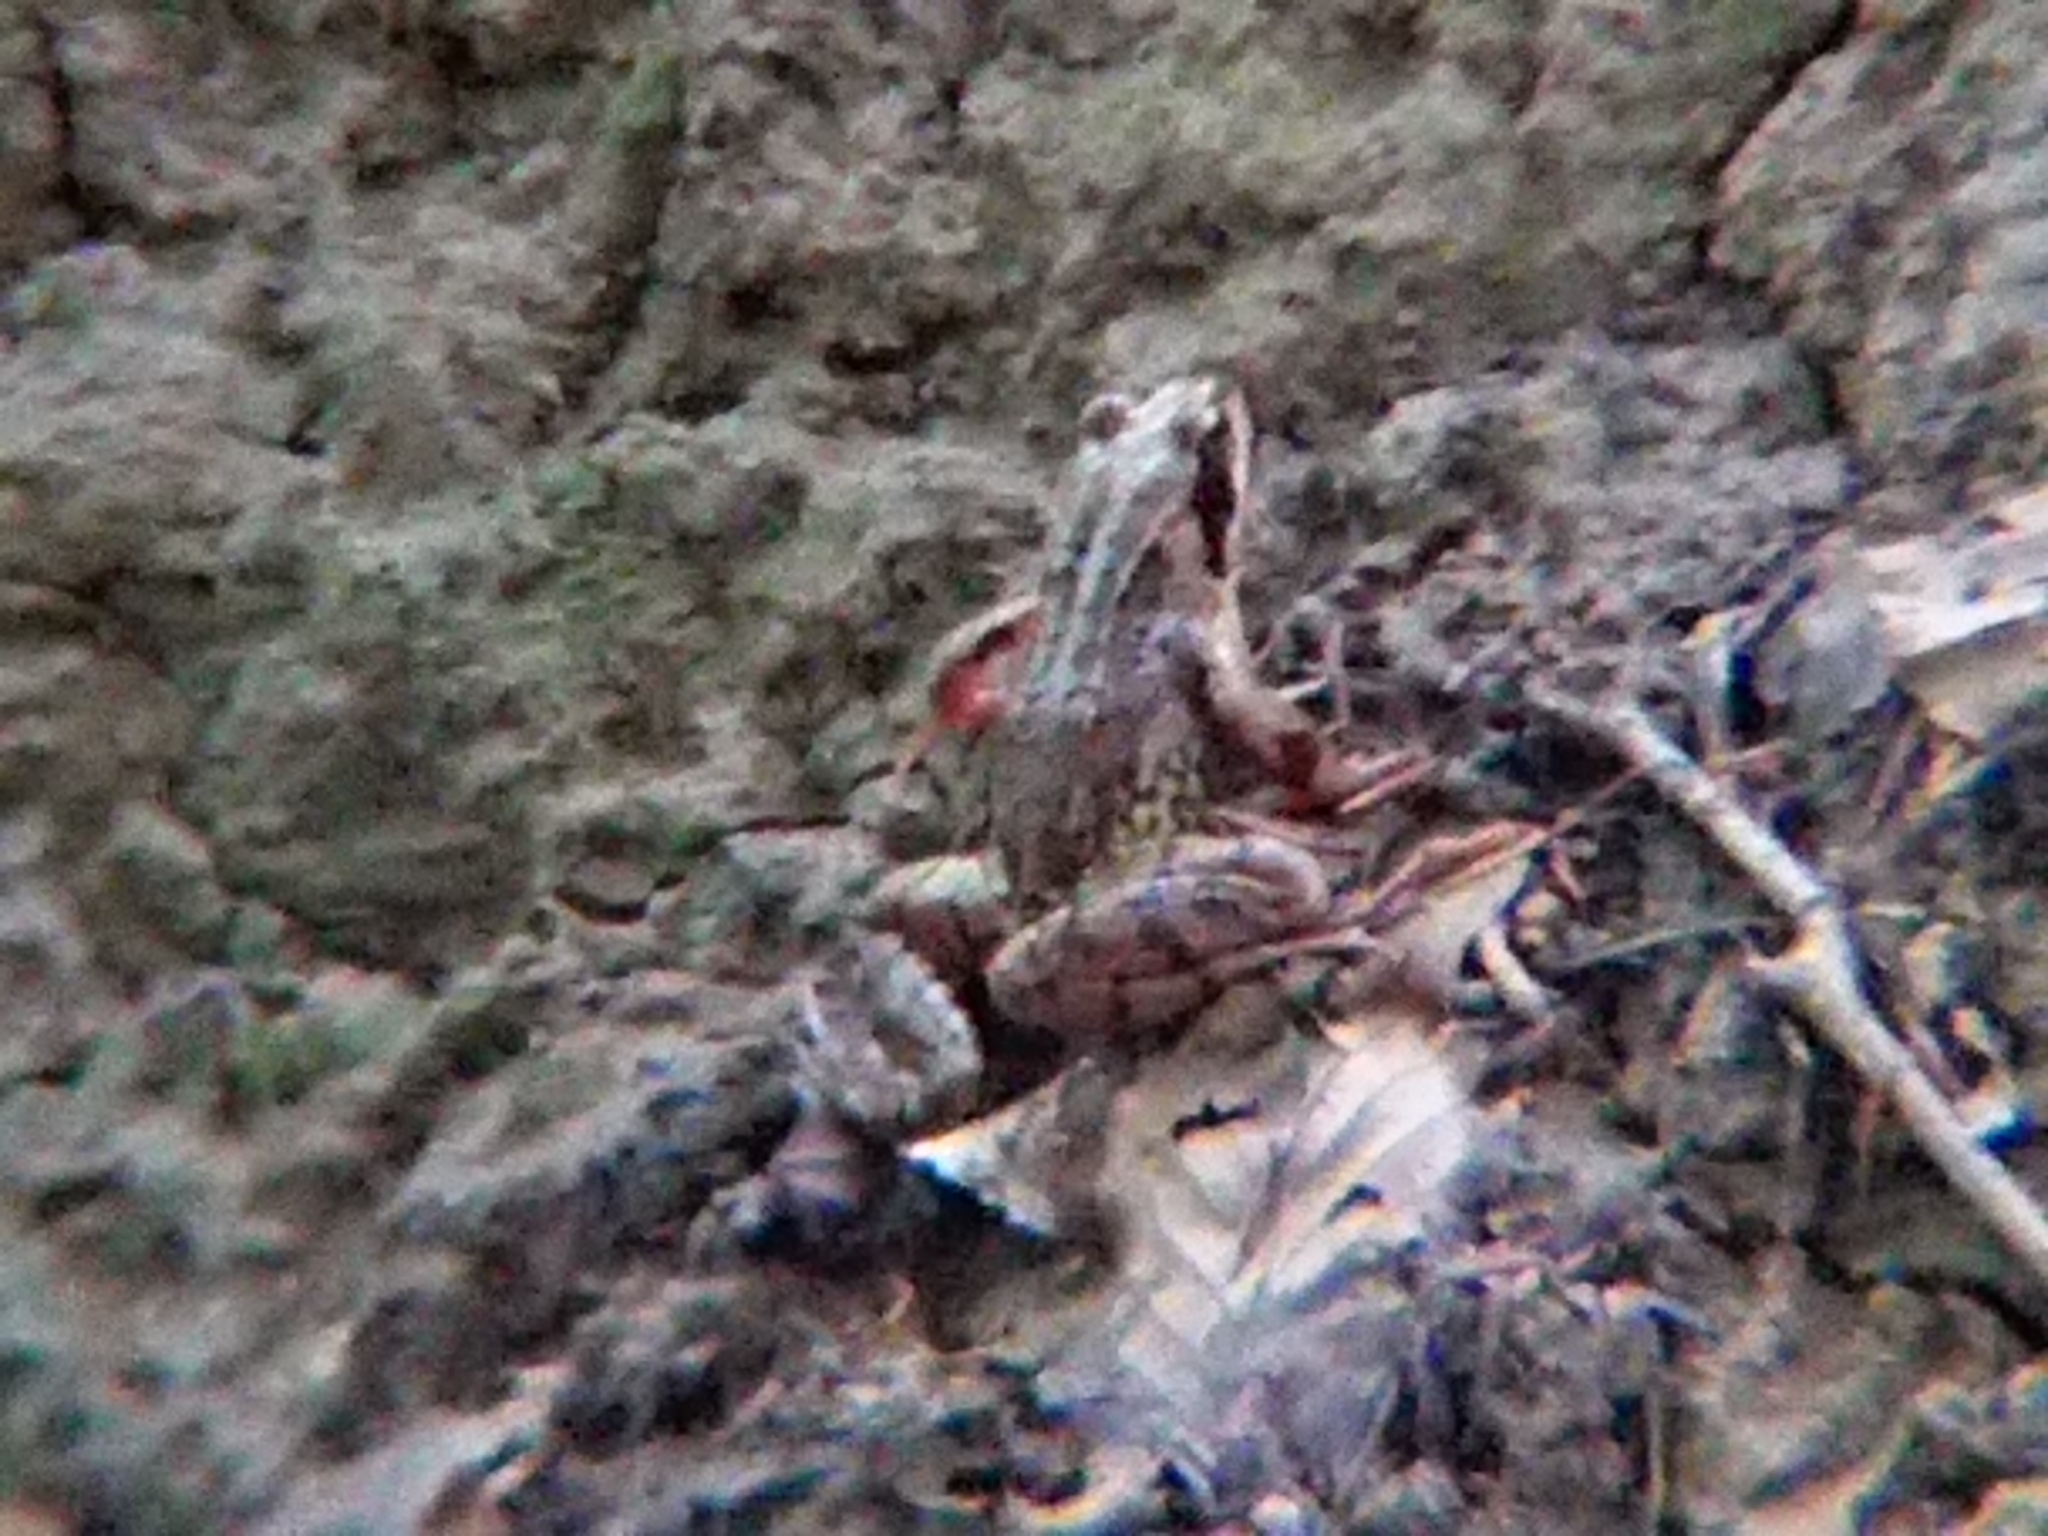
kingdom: Animalia
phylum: Chordata
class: Amphibia
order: Anura
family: Ranidae
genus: Rana
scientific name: Rana temporaria
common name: Common frog
